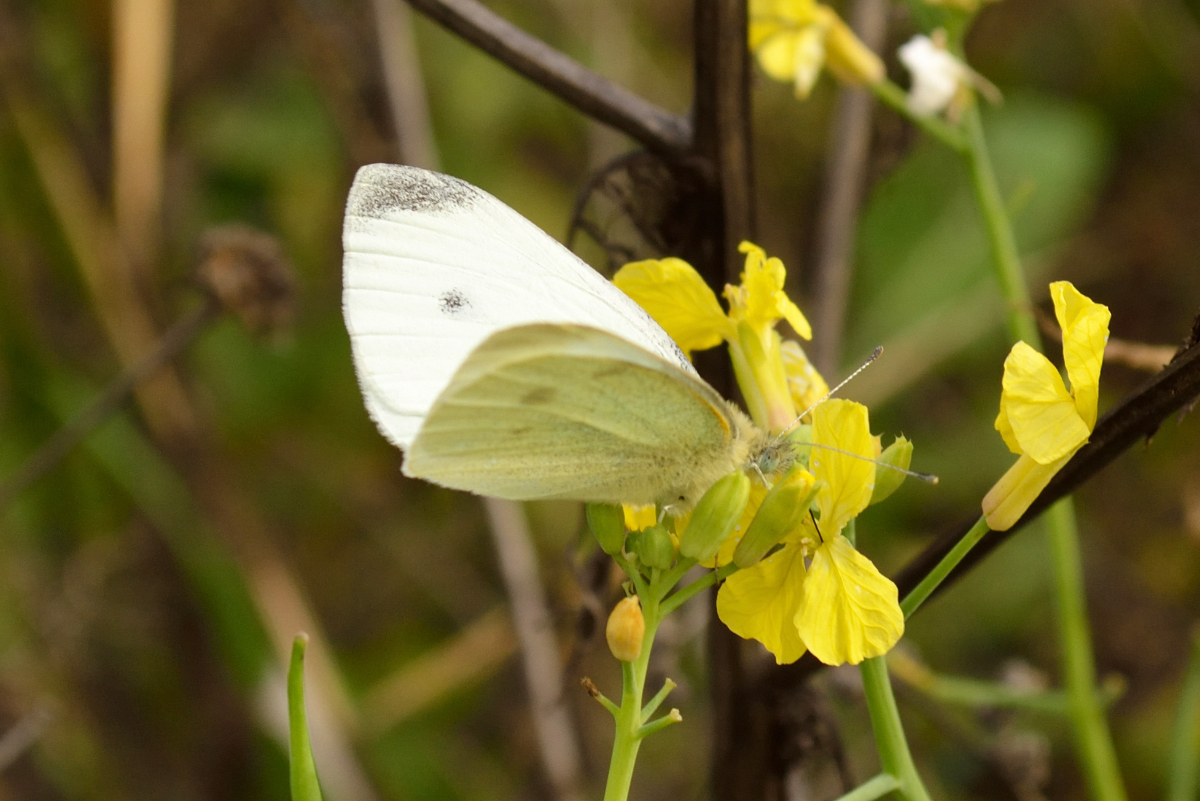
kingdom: Animalia
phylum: Arthropoda
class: Insecta
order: Lepidoptera
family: Pieridae
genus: Pieris
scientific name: Pieris rapae
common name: Small white
